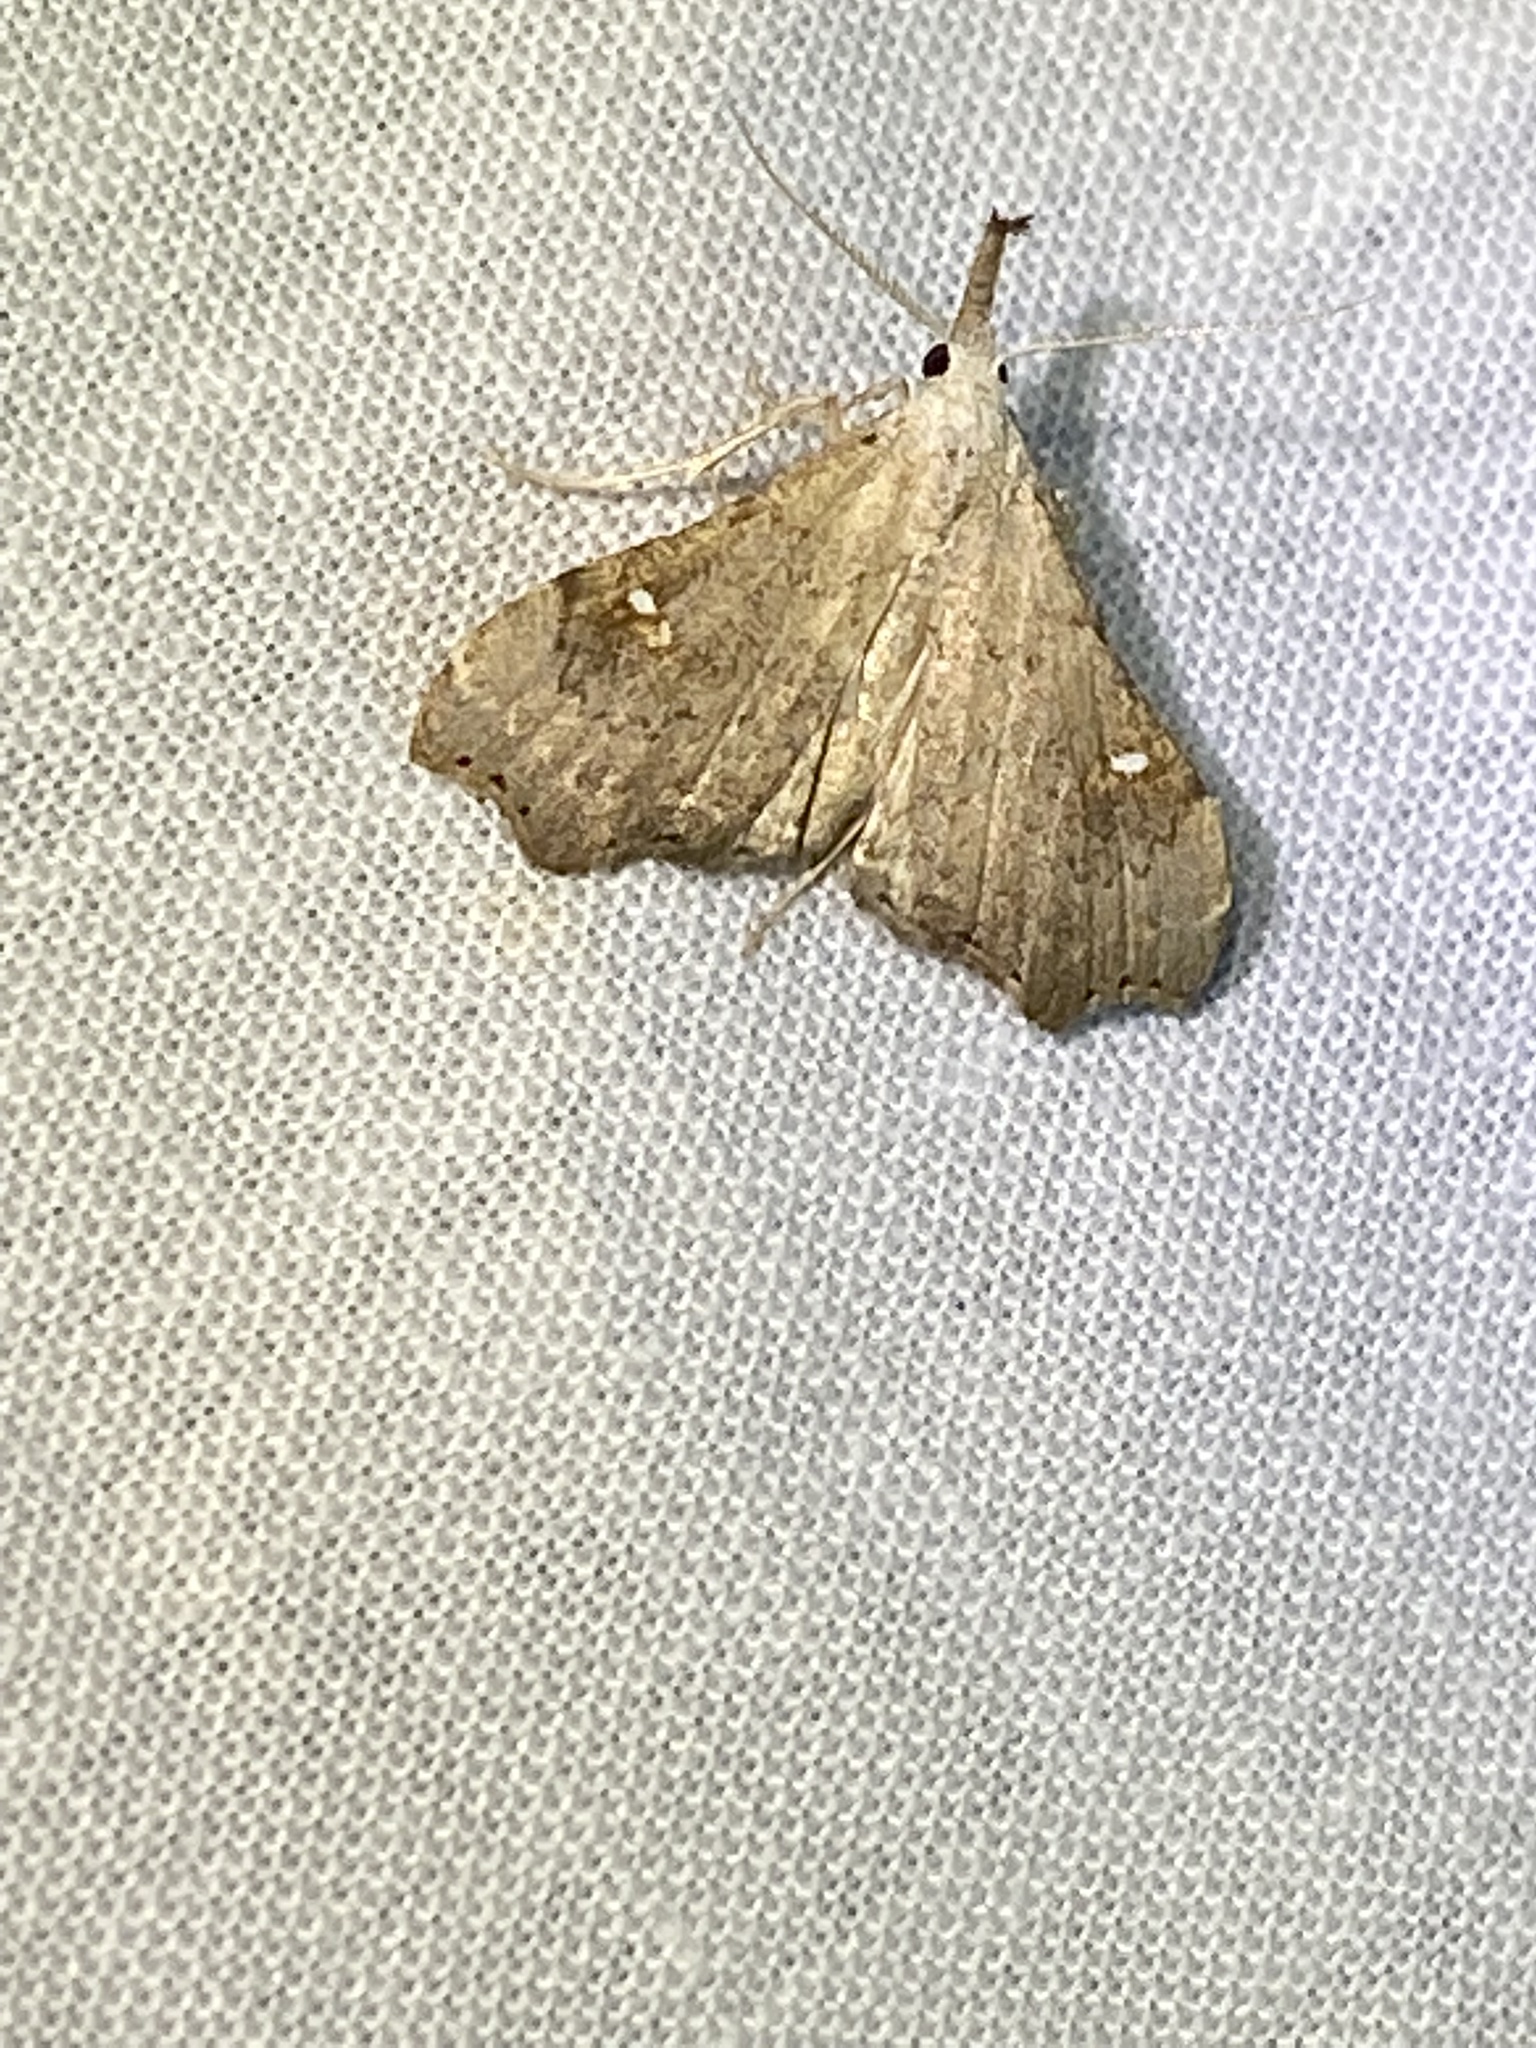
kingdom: Animalia
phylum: Arthropoda
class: Insecta
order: Lepidoptera
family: Erebidae
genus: Redectis
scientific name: Redectis vitrea
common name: White-spotted redectis
